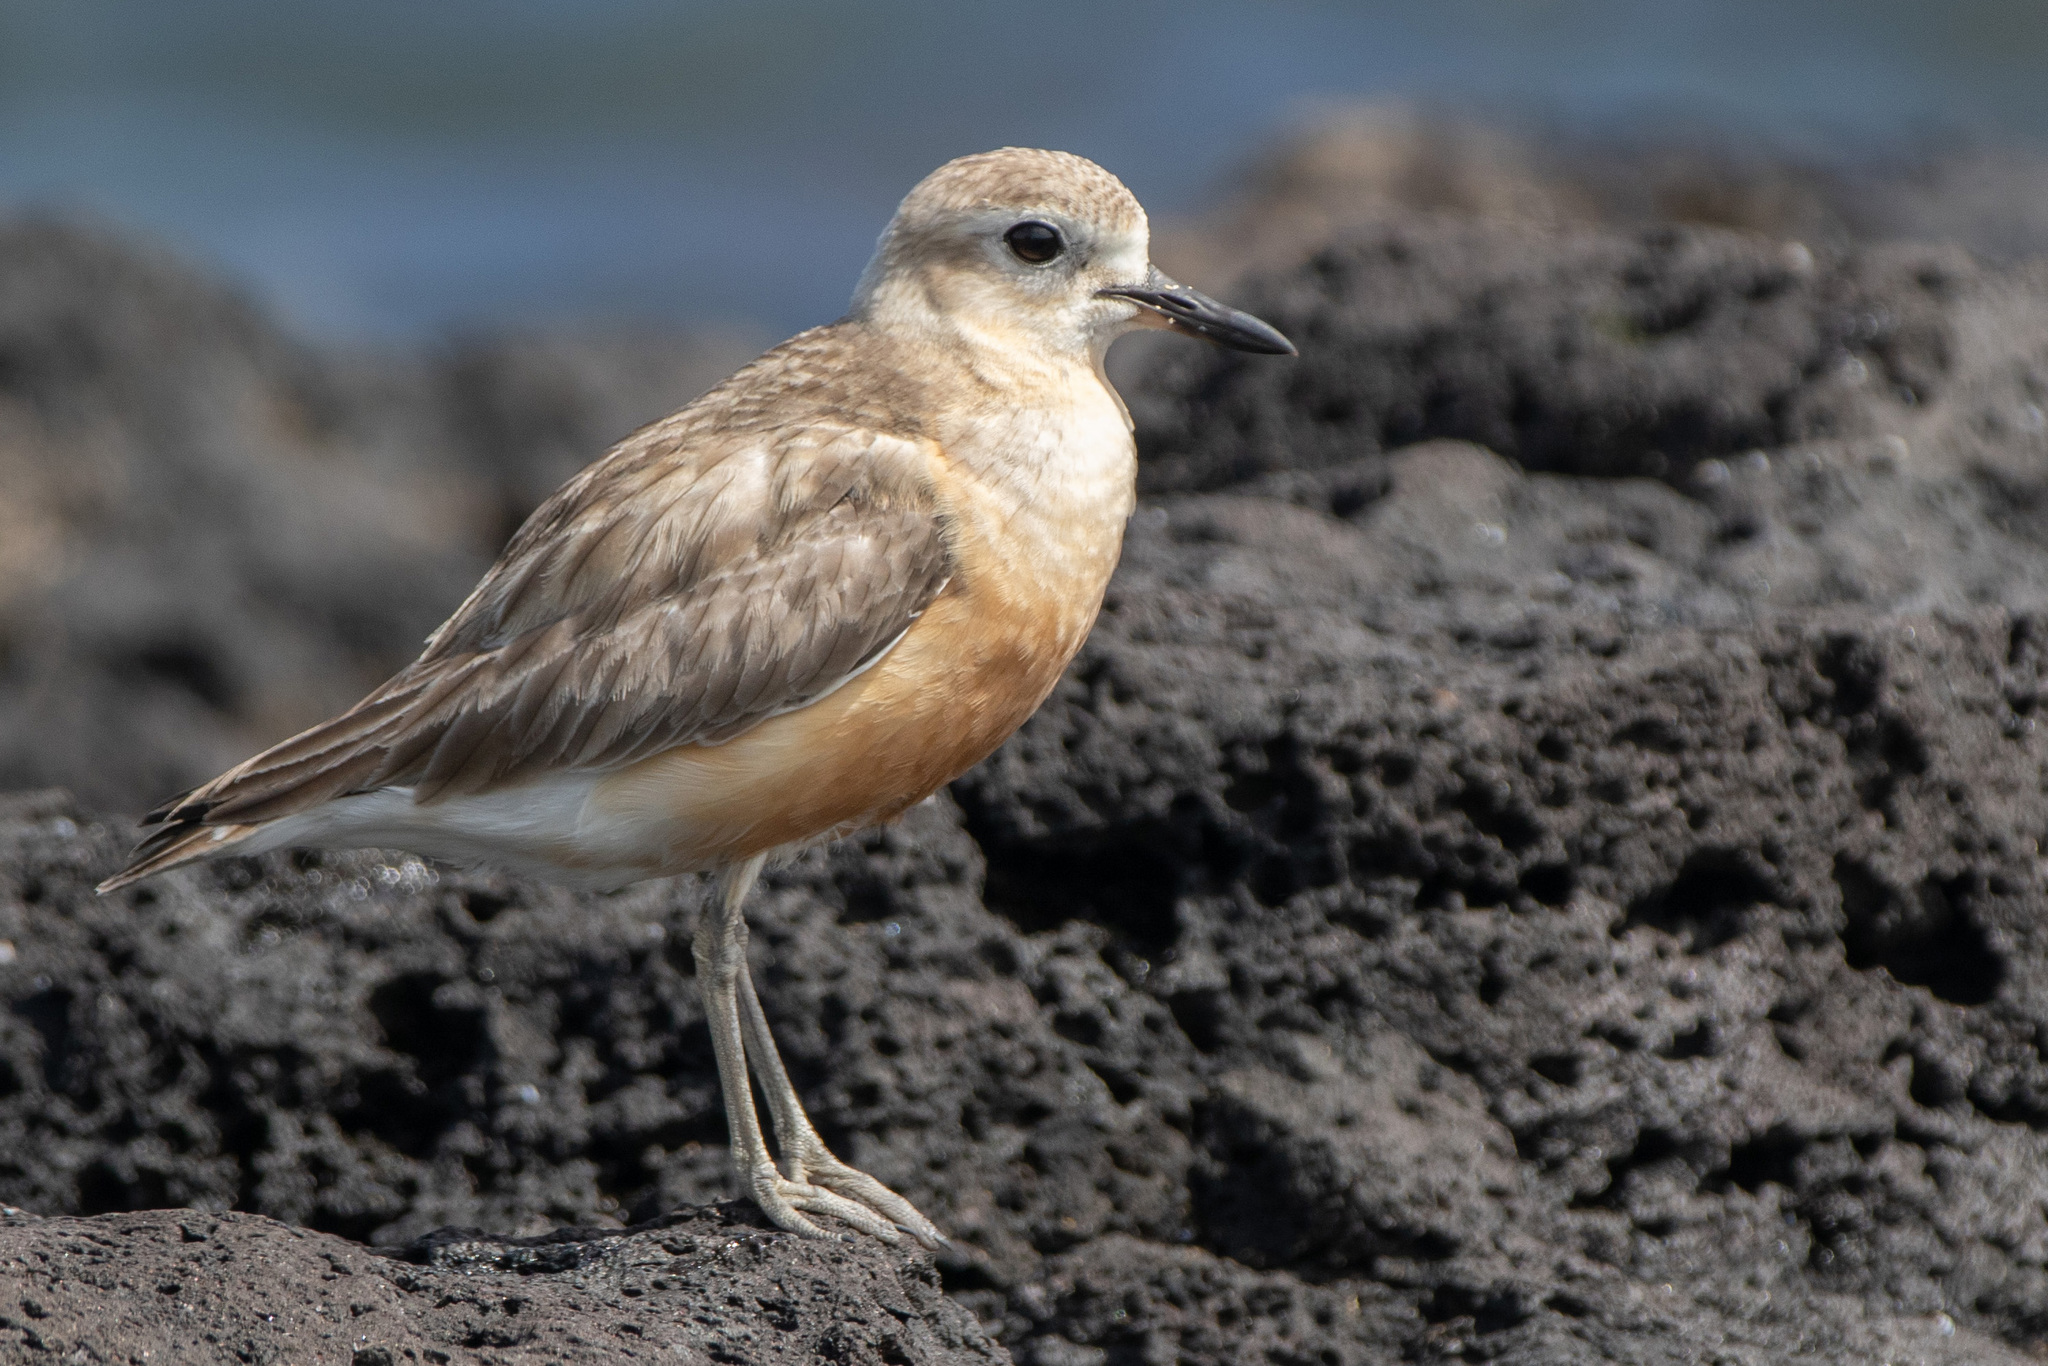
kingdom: Animalia
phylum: Chordata
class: Aves
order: Charadriiformes
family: Charadriidae
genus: Anarhynchus
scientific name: Anarhynchus
